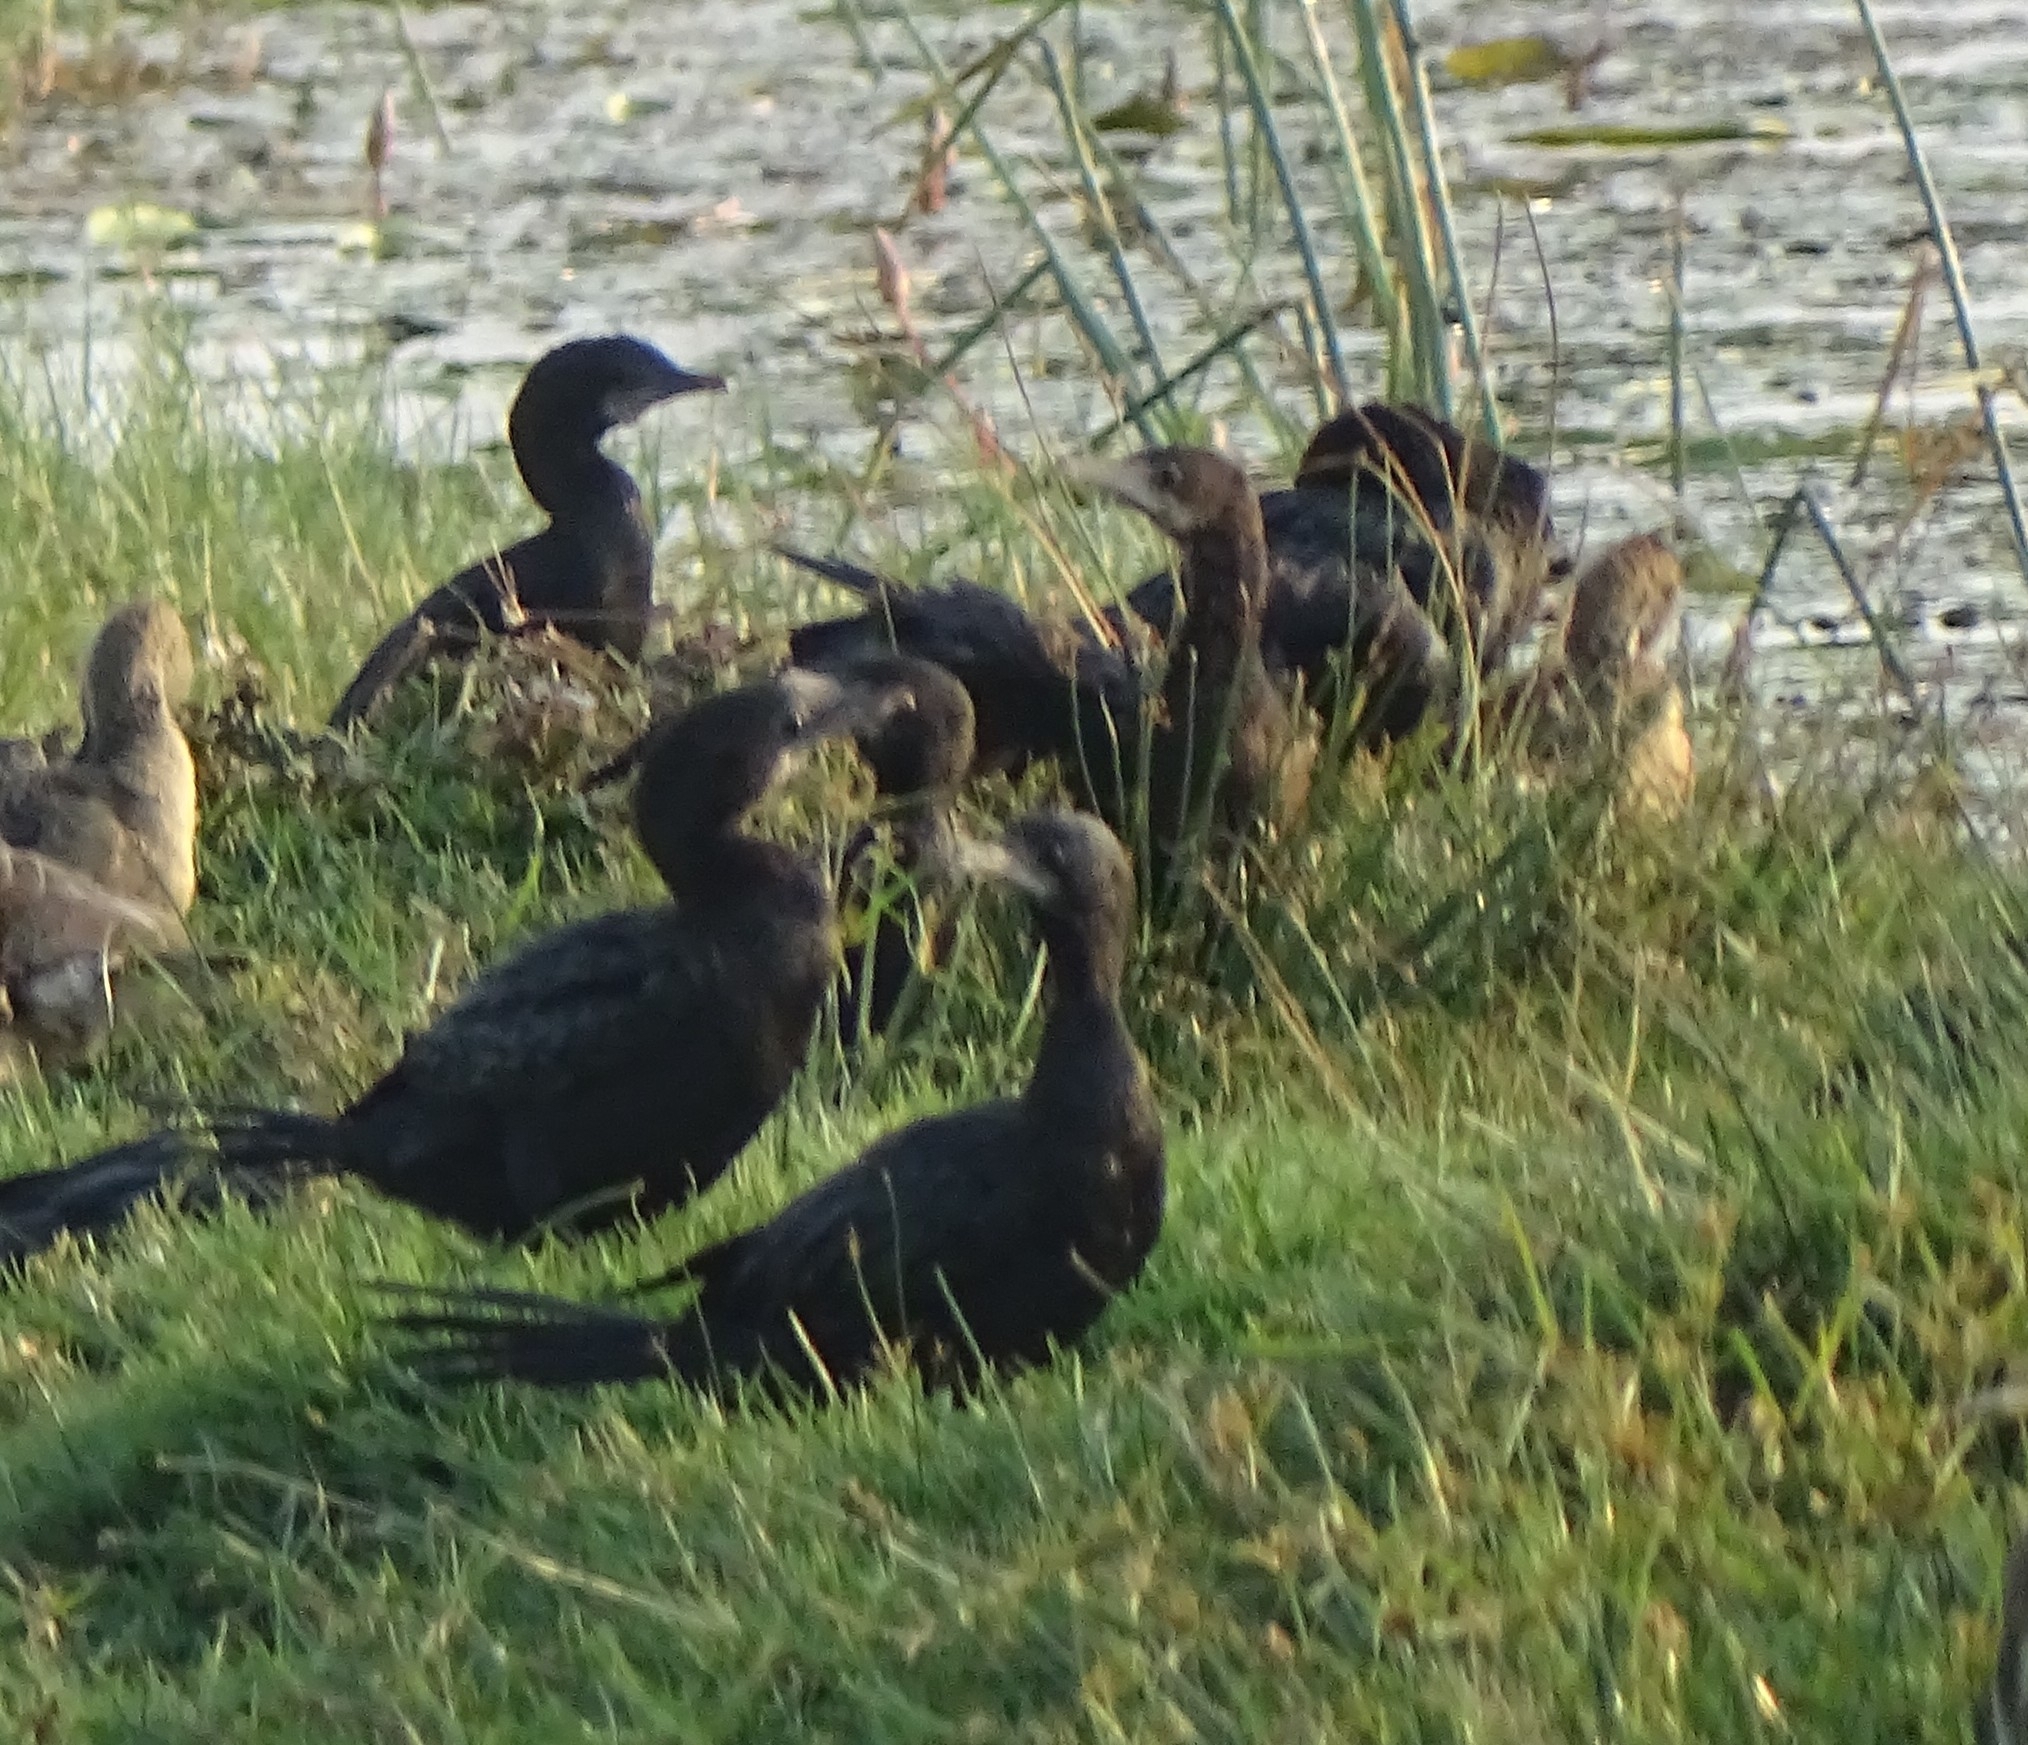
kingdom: Animalia
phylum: Chordata
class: Aves
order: Suliformes
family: Phalacrocoracidae
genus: Microcarbo
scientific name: Microcarbo niger
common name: Little cormorant
